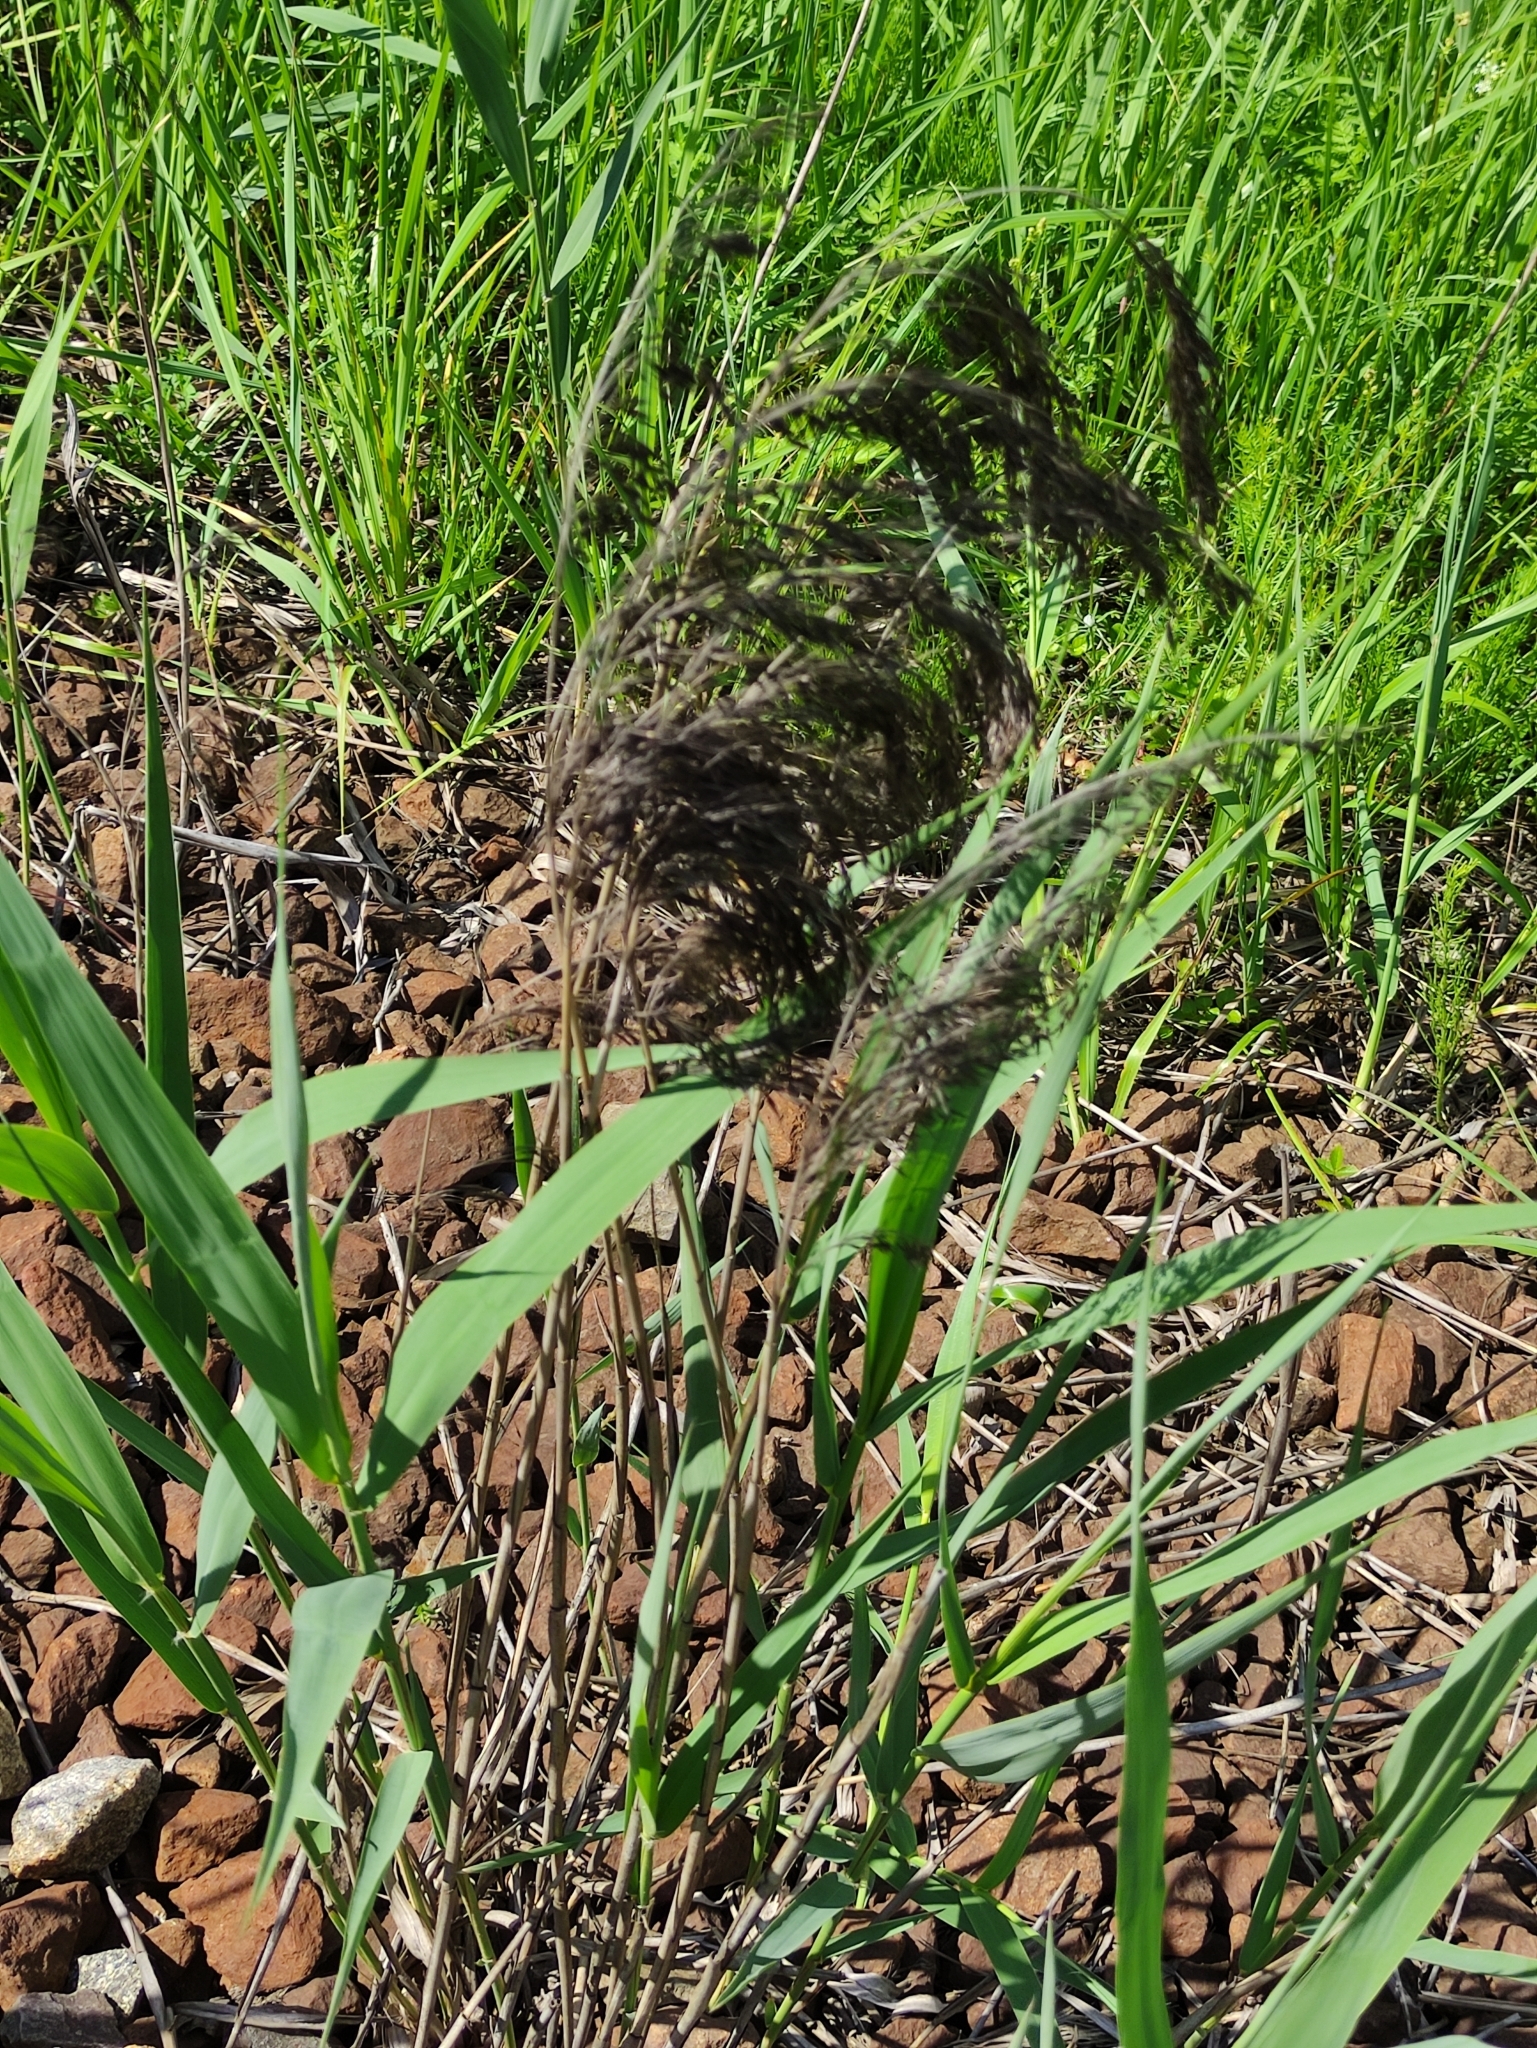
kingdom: Plantae
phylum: Tracheophyta
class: Liliopsida
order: Poales
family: Poaceae
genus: Phragmites
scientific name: Phragmites australis
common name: Common reed
